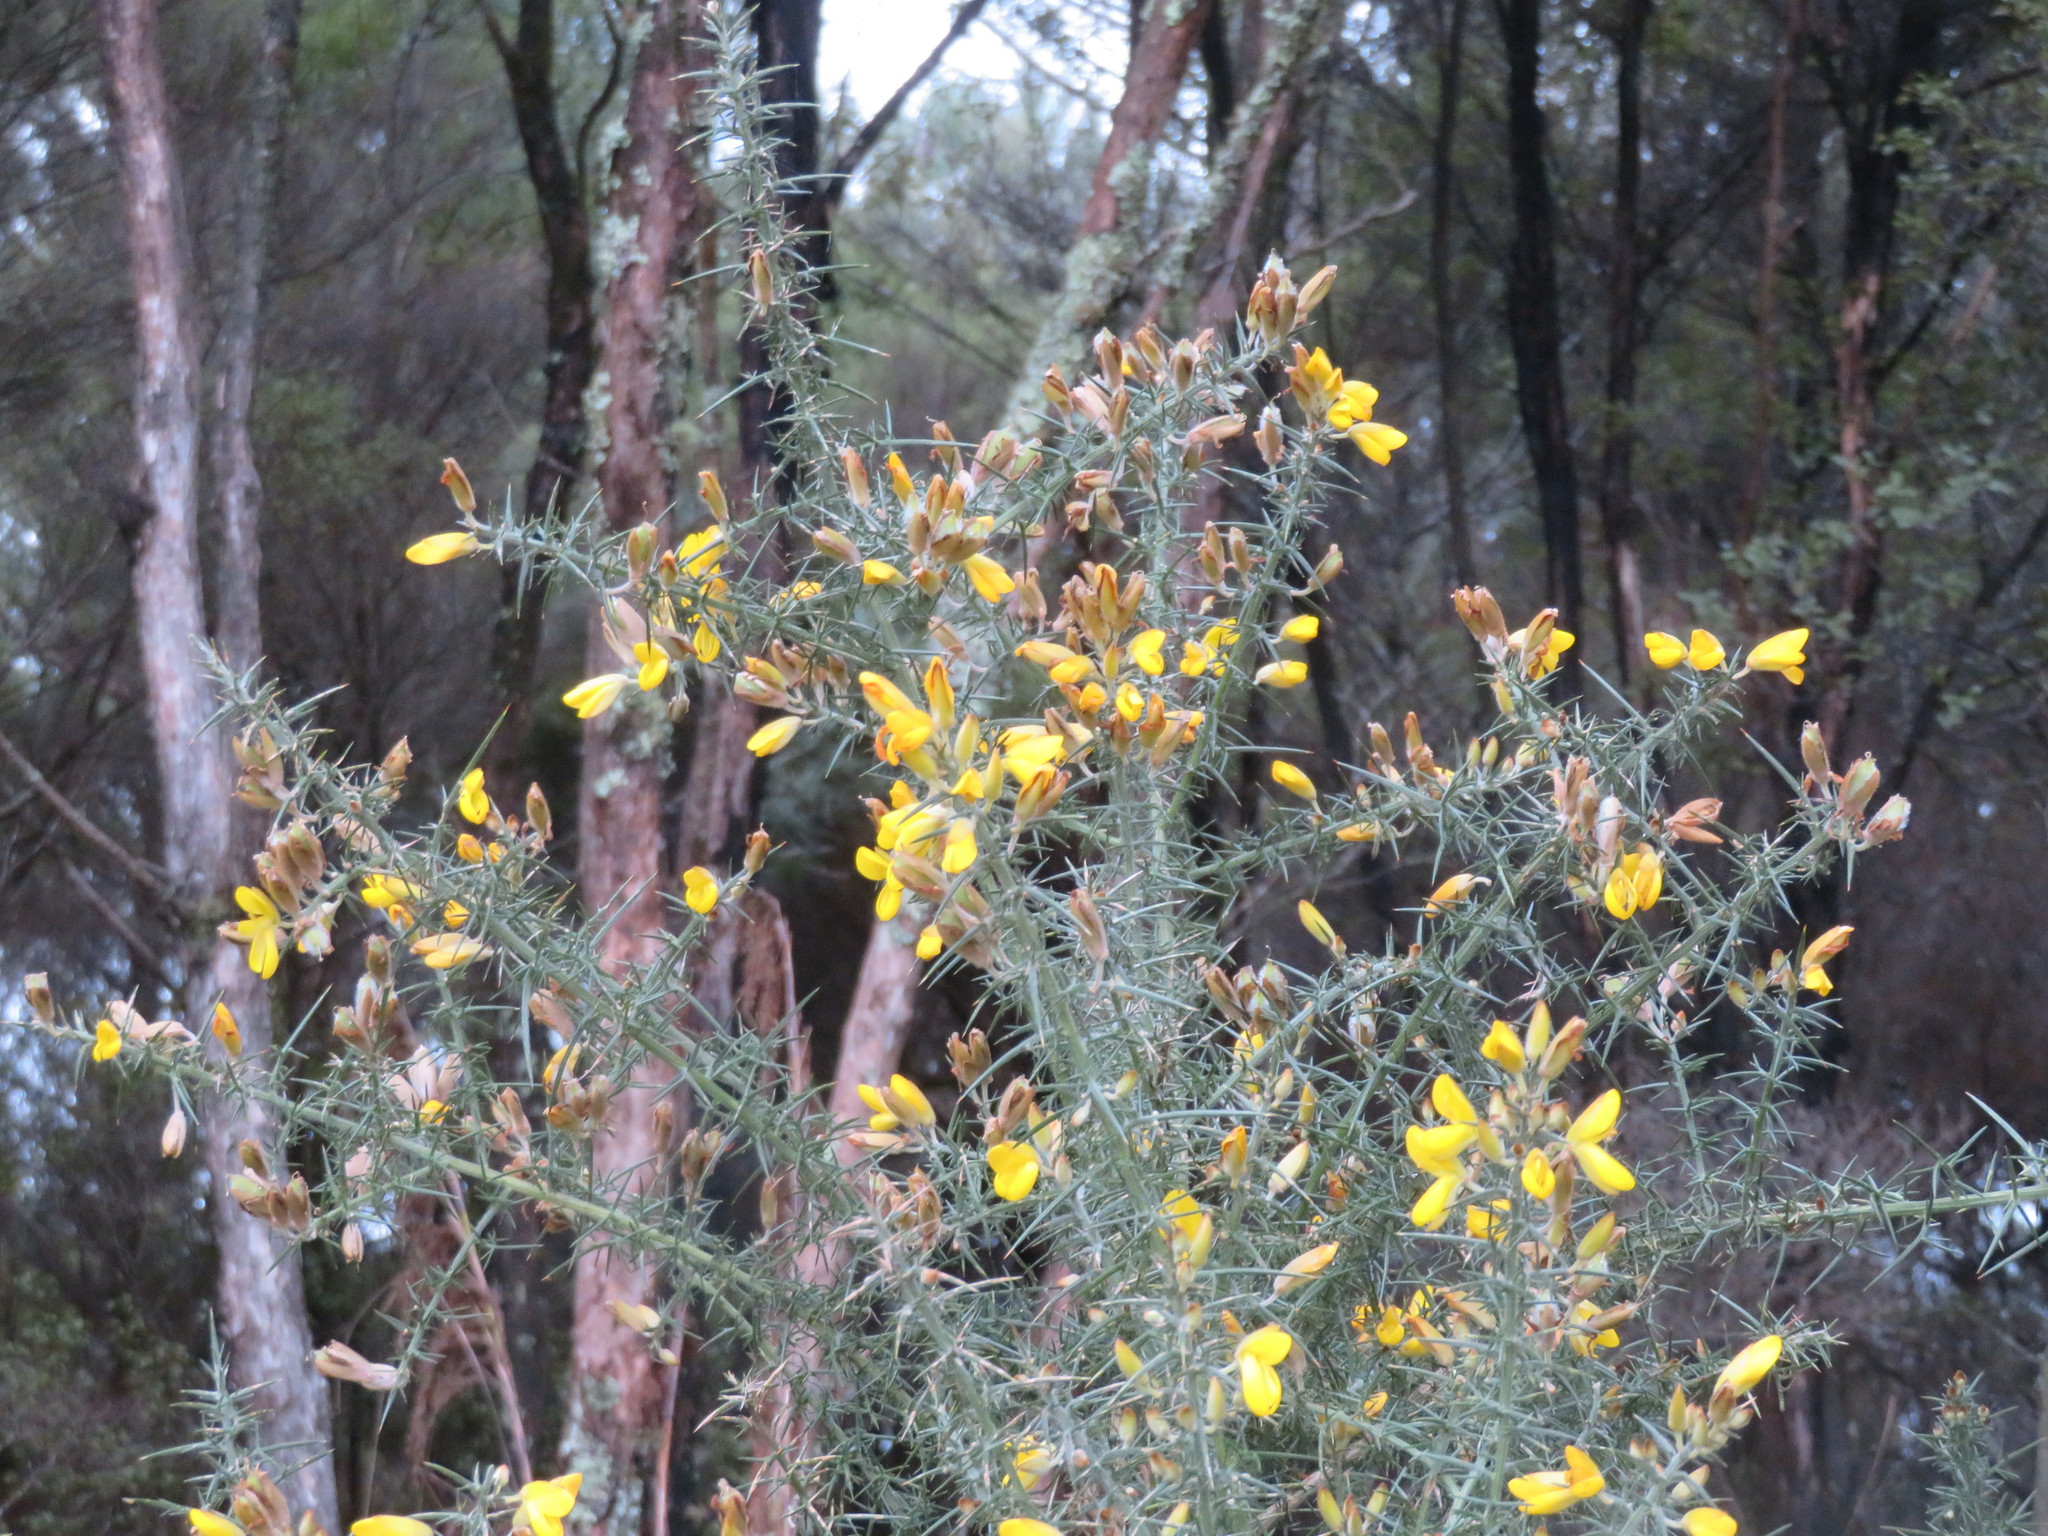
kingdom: Plantae
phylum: Tracheophyta
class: Magnoliopsida
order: Fabales
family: Fabaceae
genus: Ulex
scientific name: Ulex europaeus
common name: Common gorse
